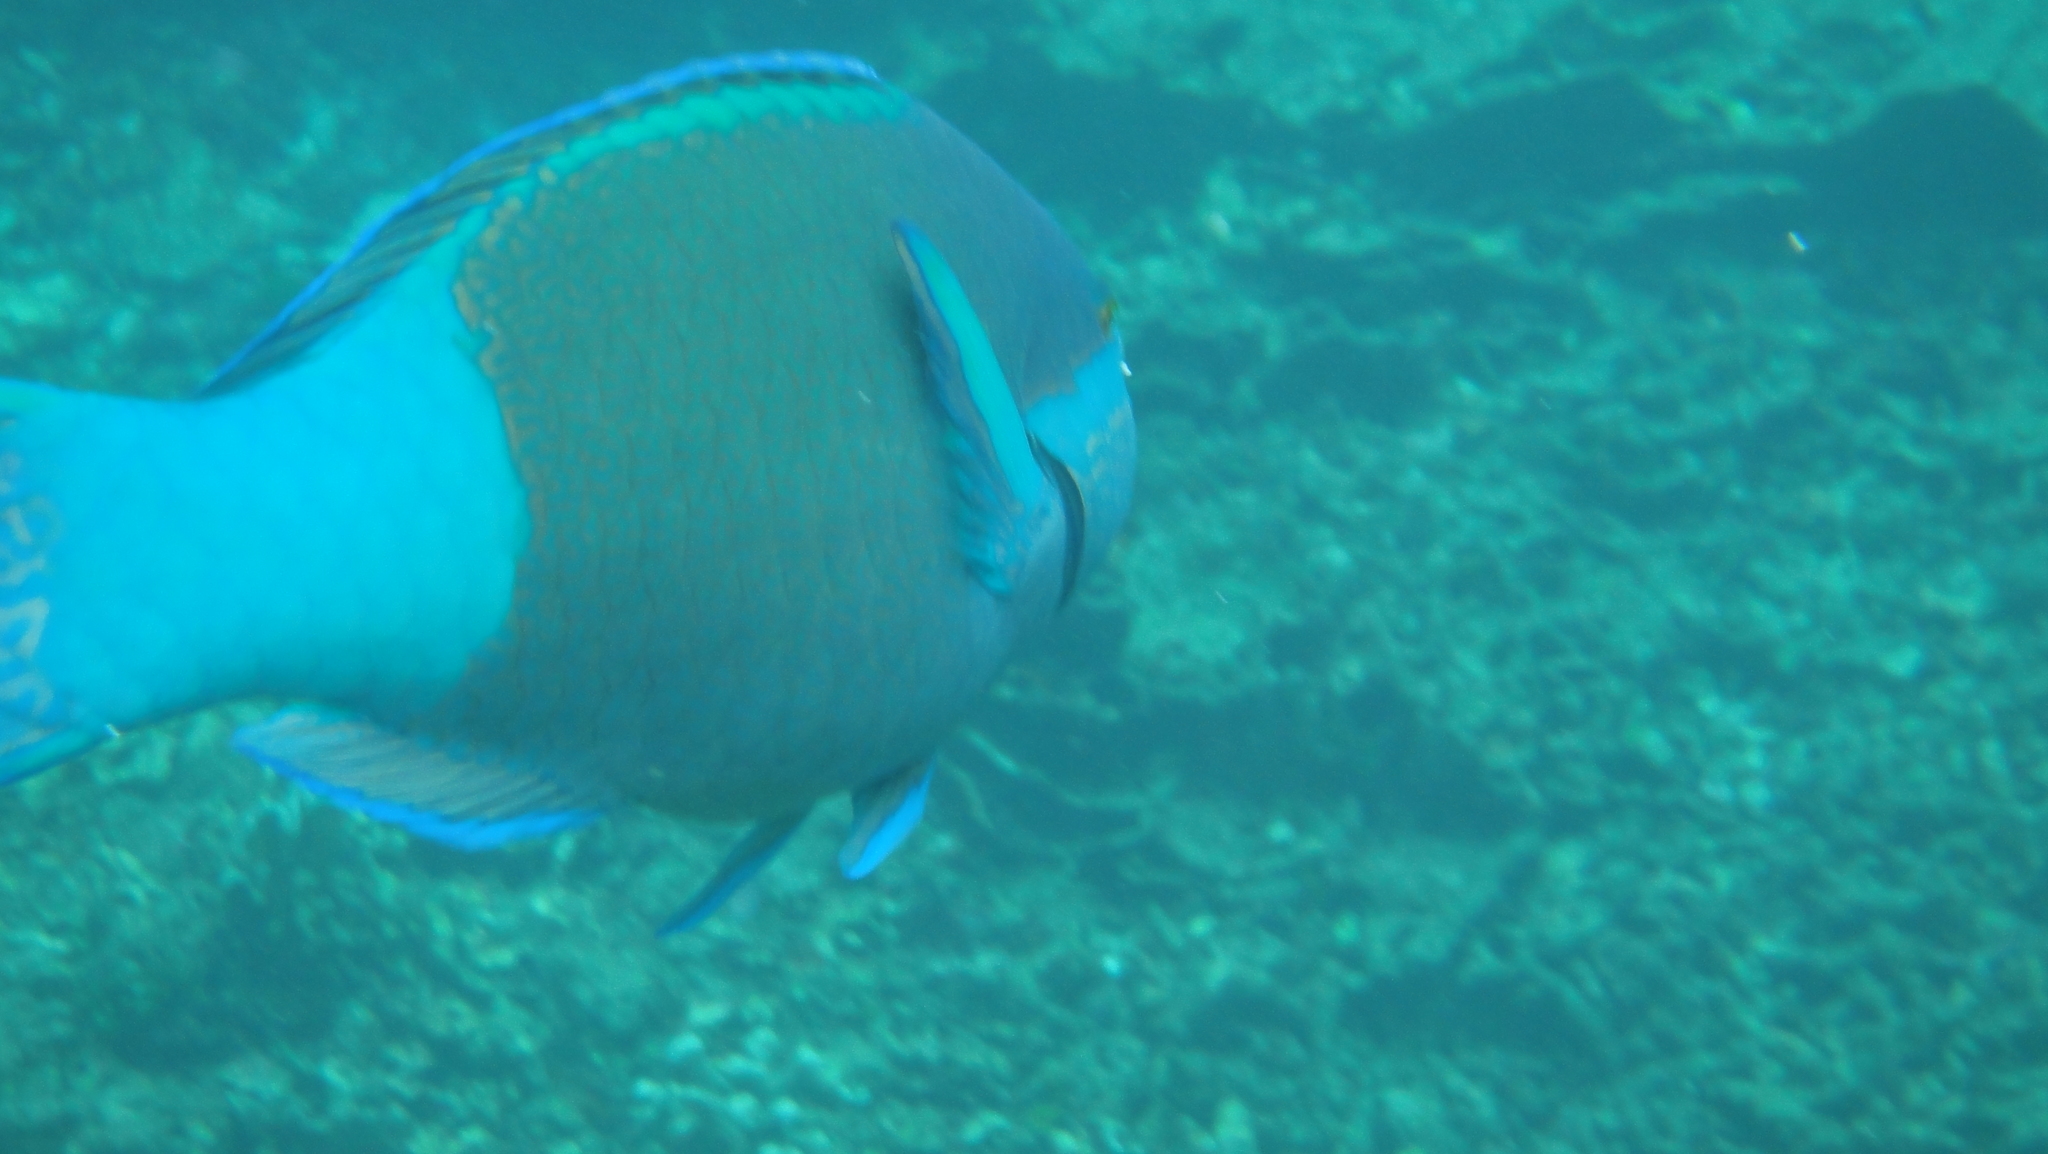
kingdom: Animalia
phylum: Chordata
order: Perciformes
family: Scaridae
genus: Scarus
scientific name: Scarus frenatus
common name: Bridled parrotfish
